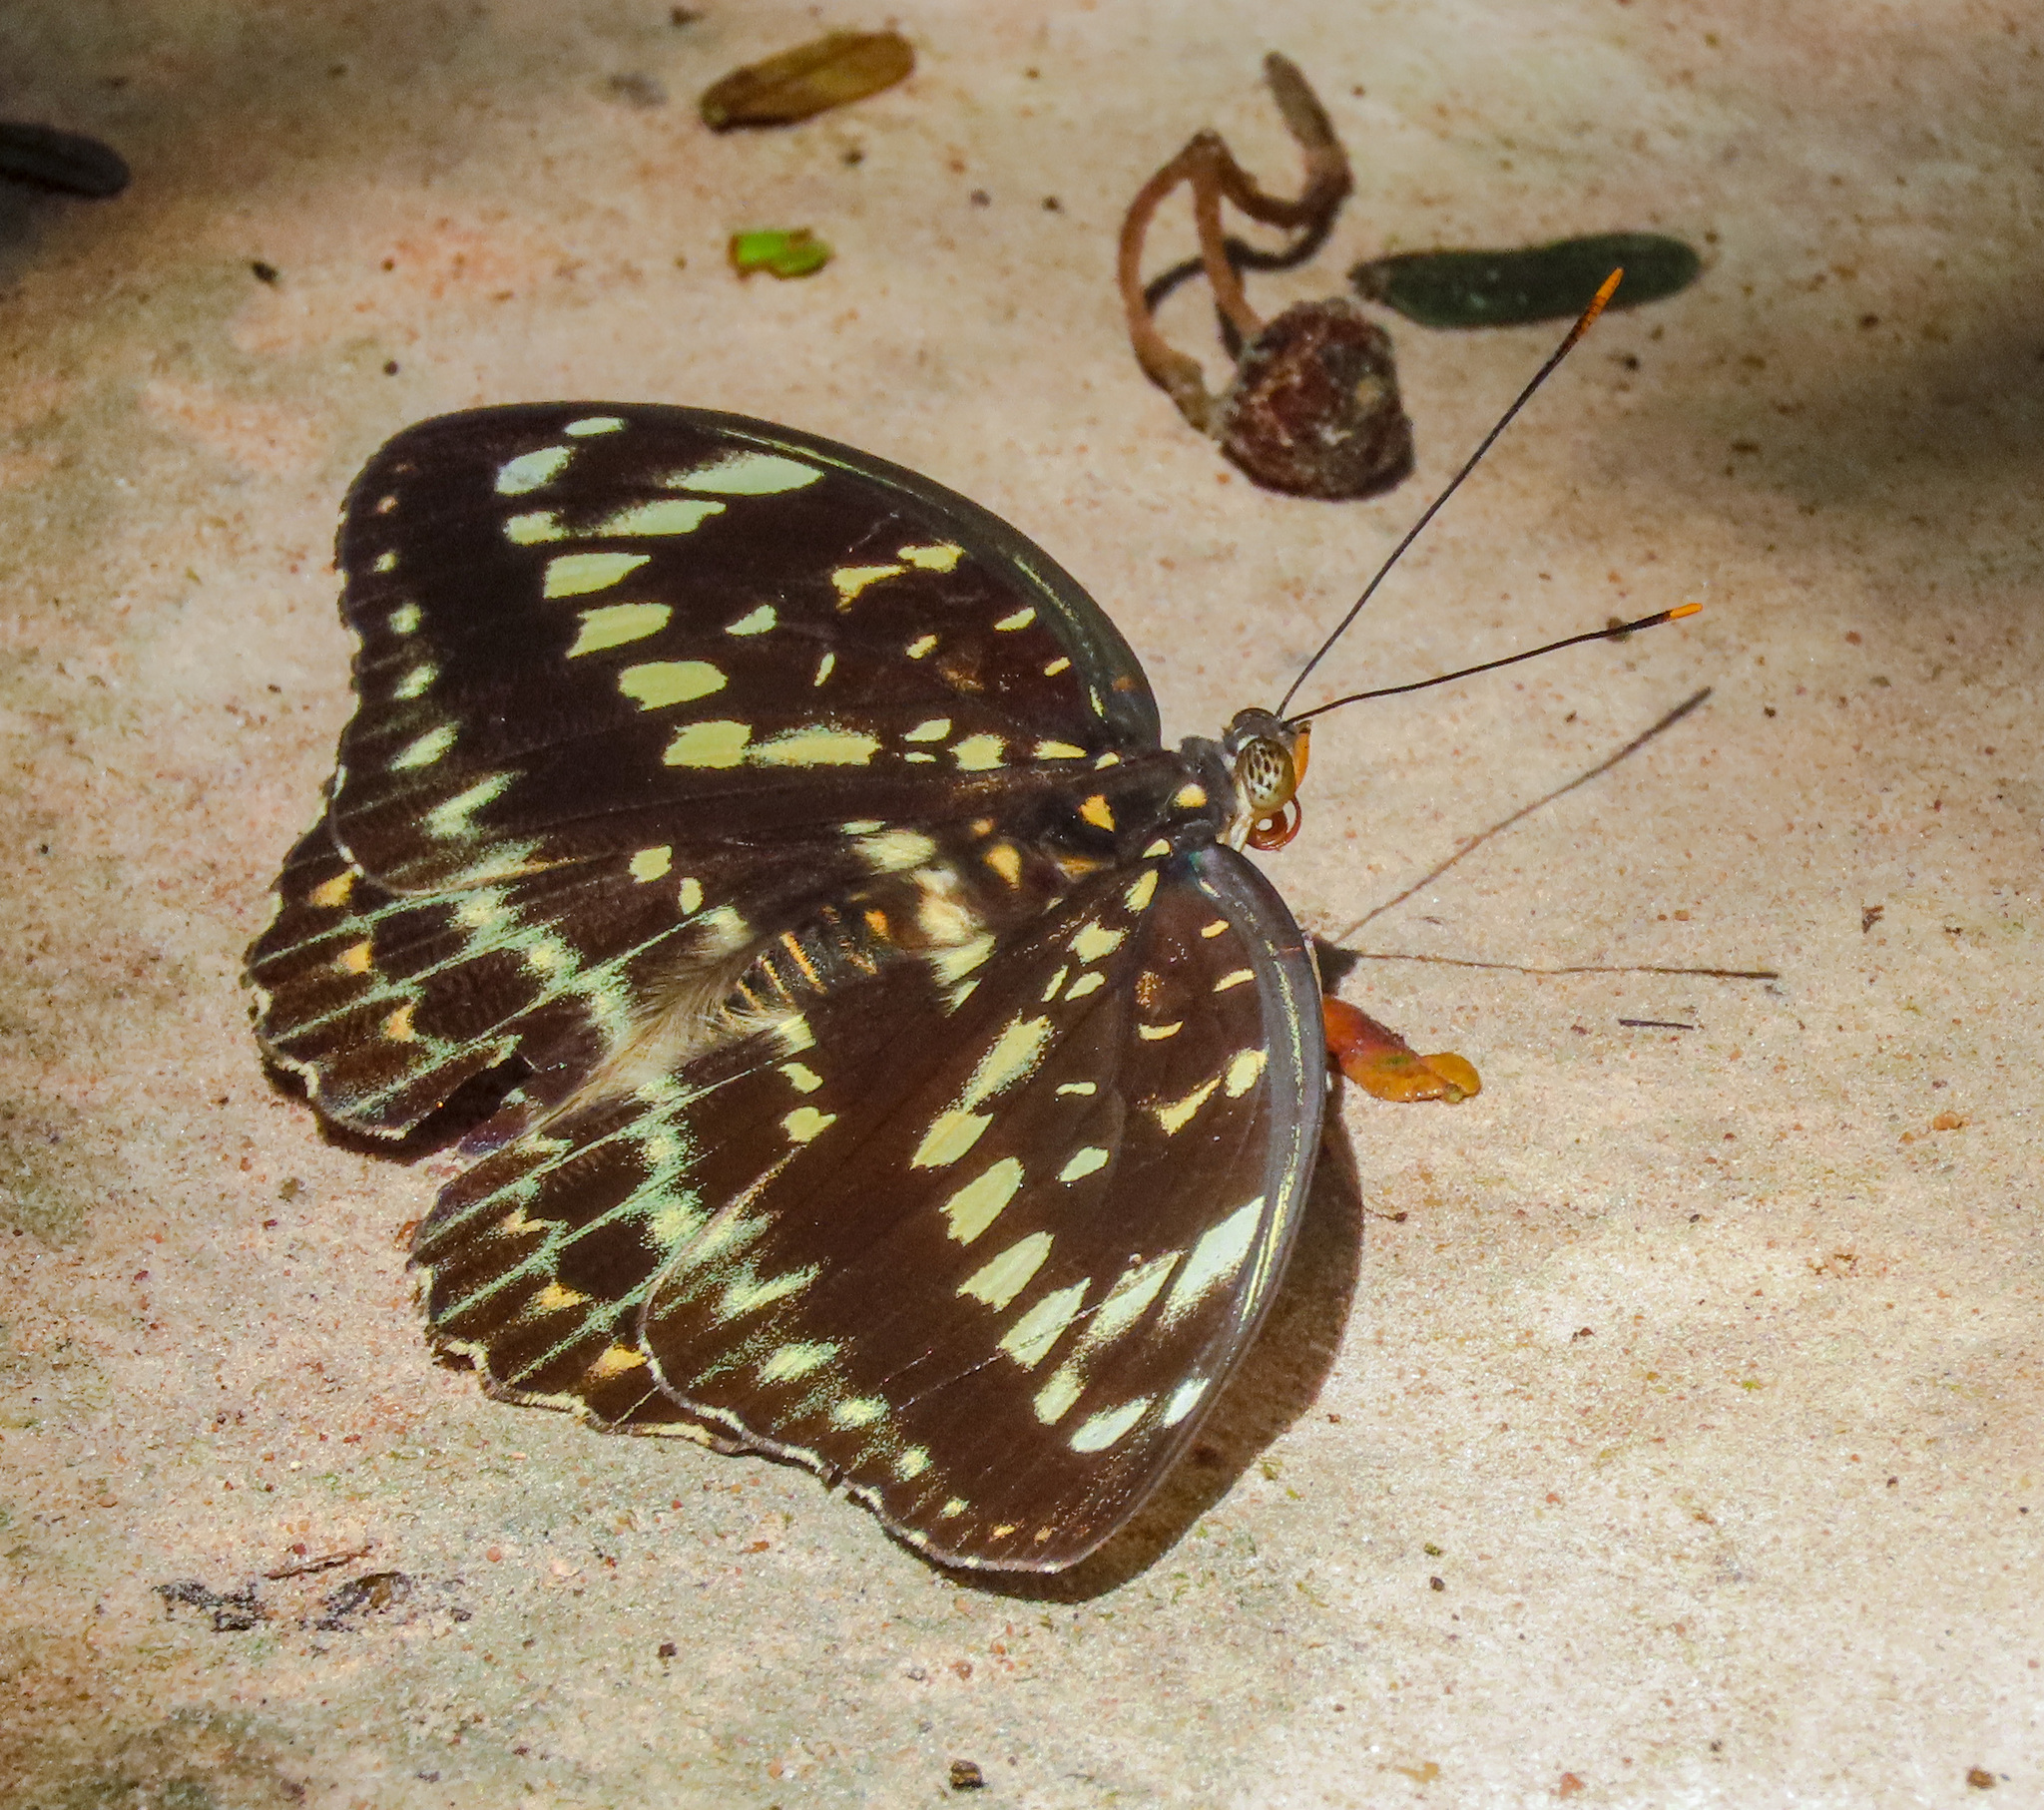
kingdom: Animalia
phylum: Arthropoda
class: Insecta
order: Lepidoptera
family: Nymphalidae
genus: Lexias
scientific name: Lexias pardalis
